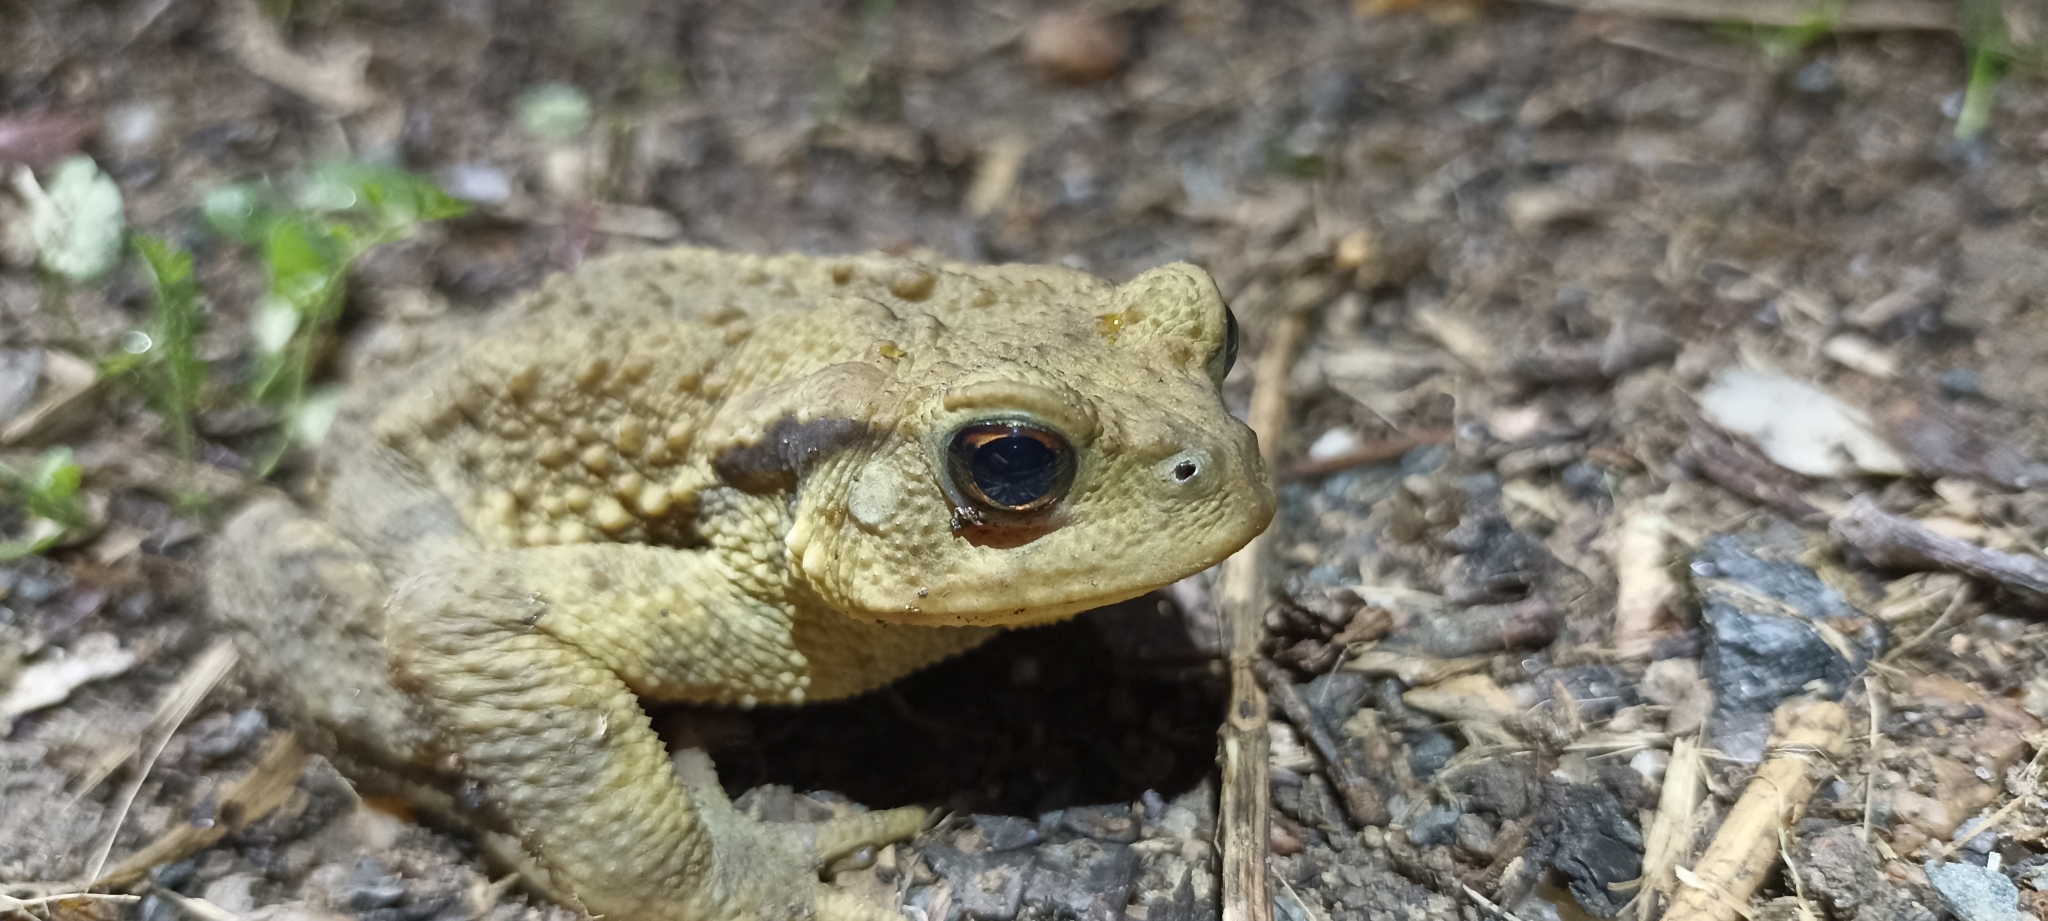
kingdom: Animalia
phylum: Chordata
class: Amphibia
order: Anura
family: Bufonidae
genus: Bufo
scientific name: Bufo spinosus
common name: Western common toad
